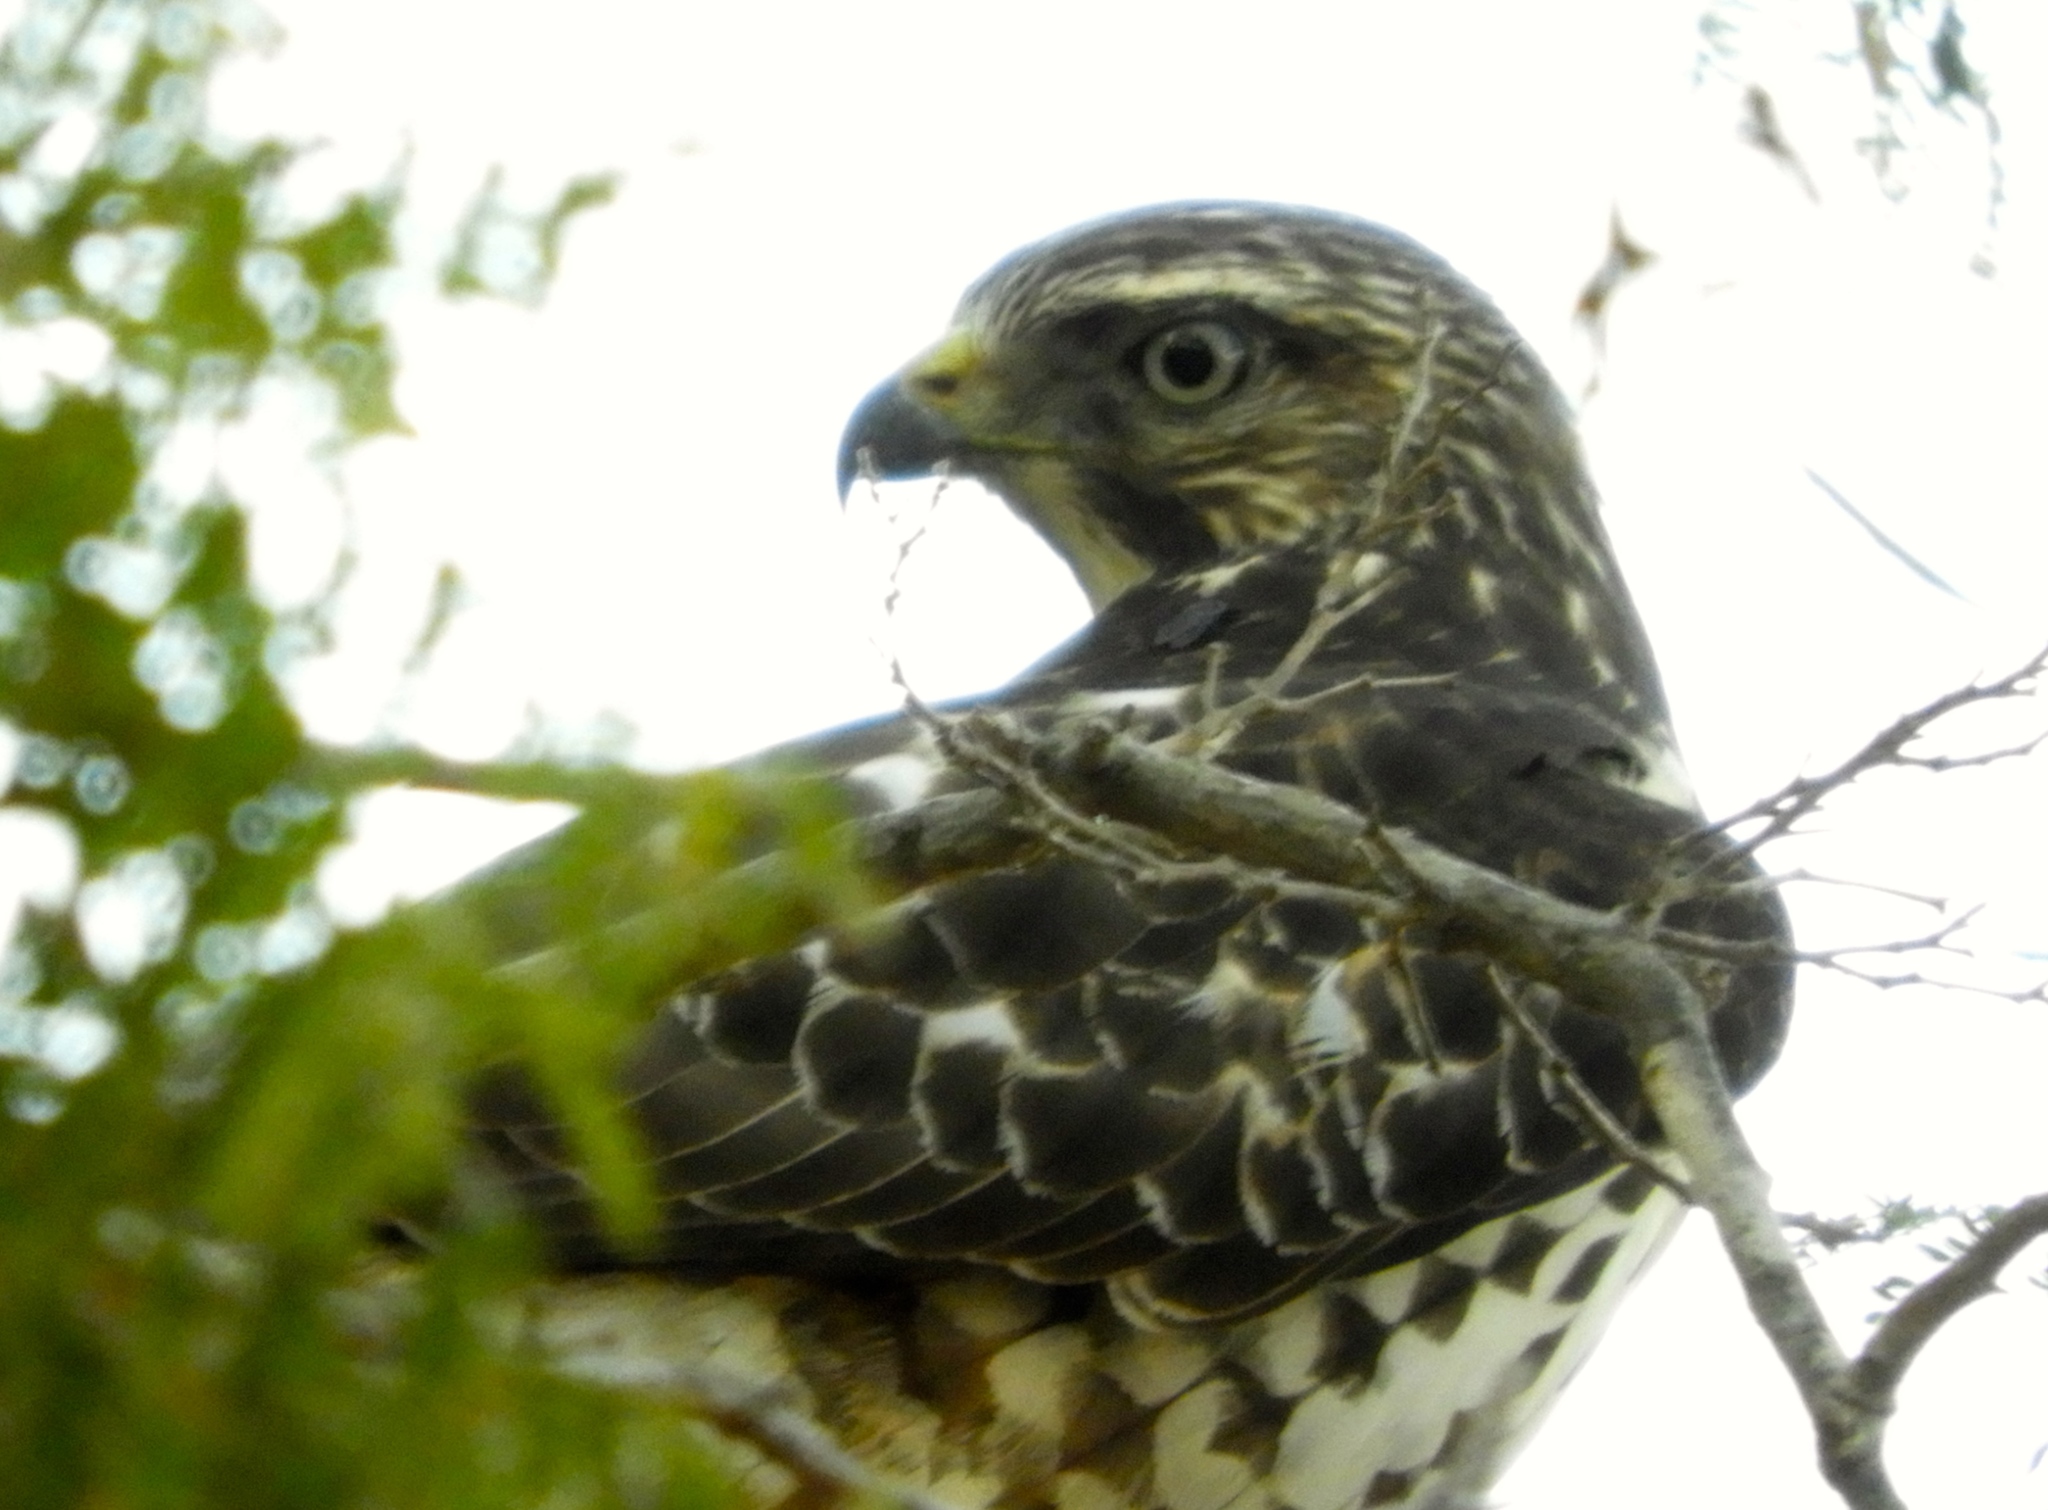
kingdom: Animalia
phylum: Chordata
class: Aves
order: Accipitriformes
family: Accipitridae
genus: Rupornis
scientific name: Rupornis magnirostris
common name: Roadside hawk
